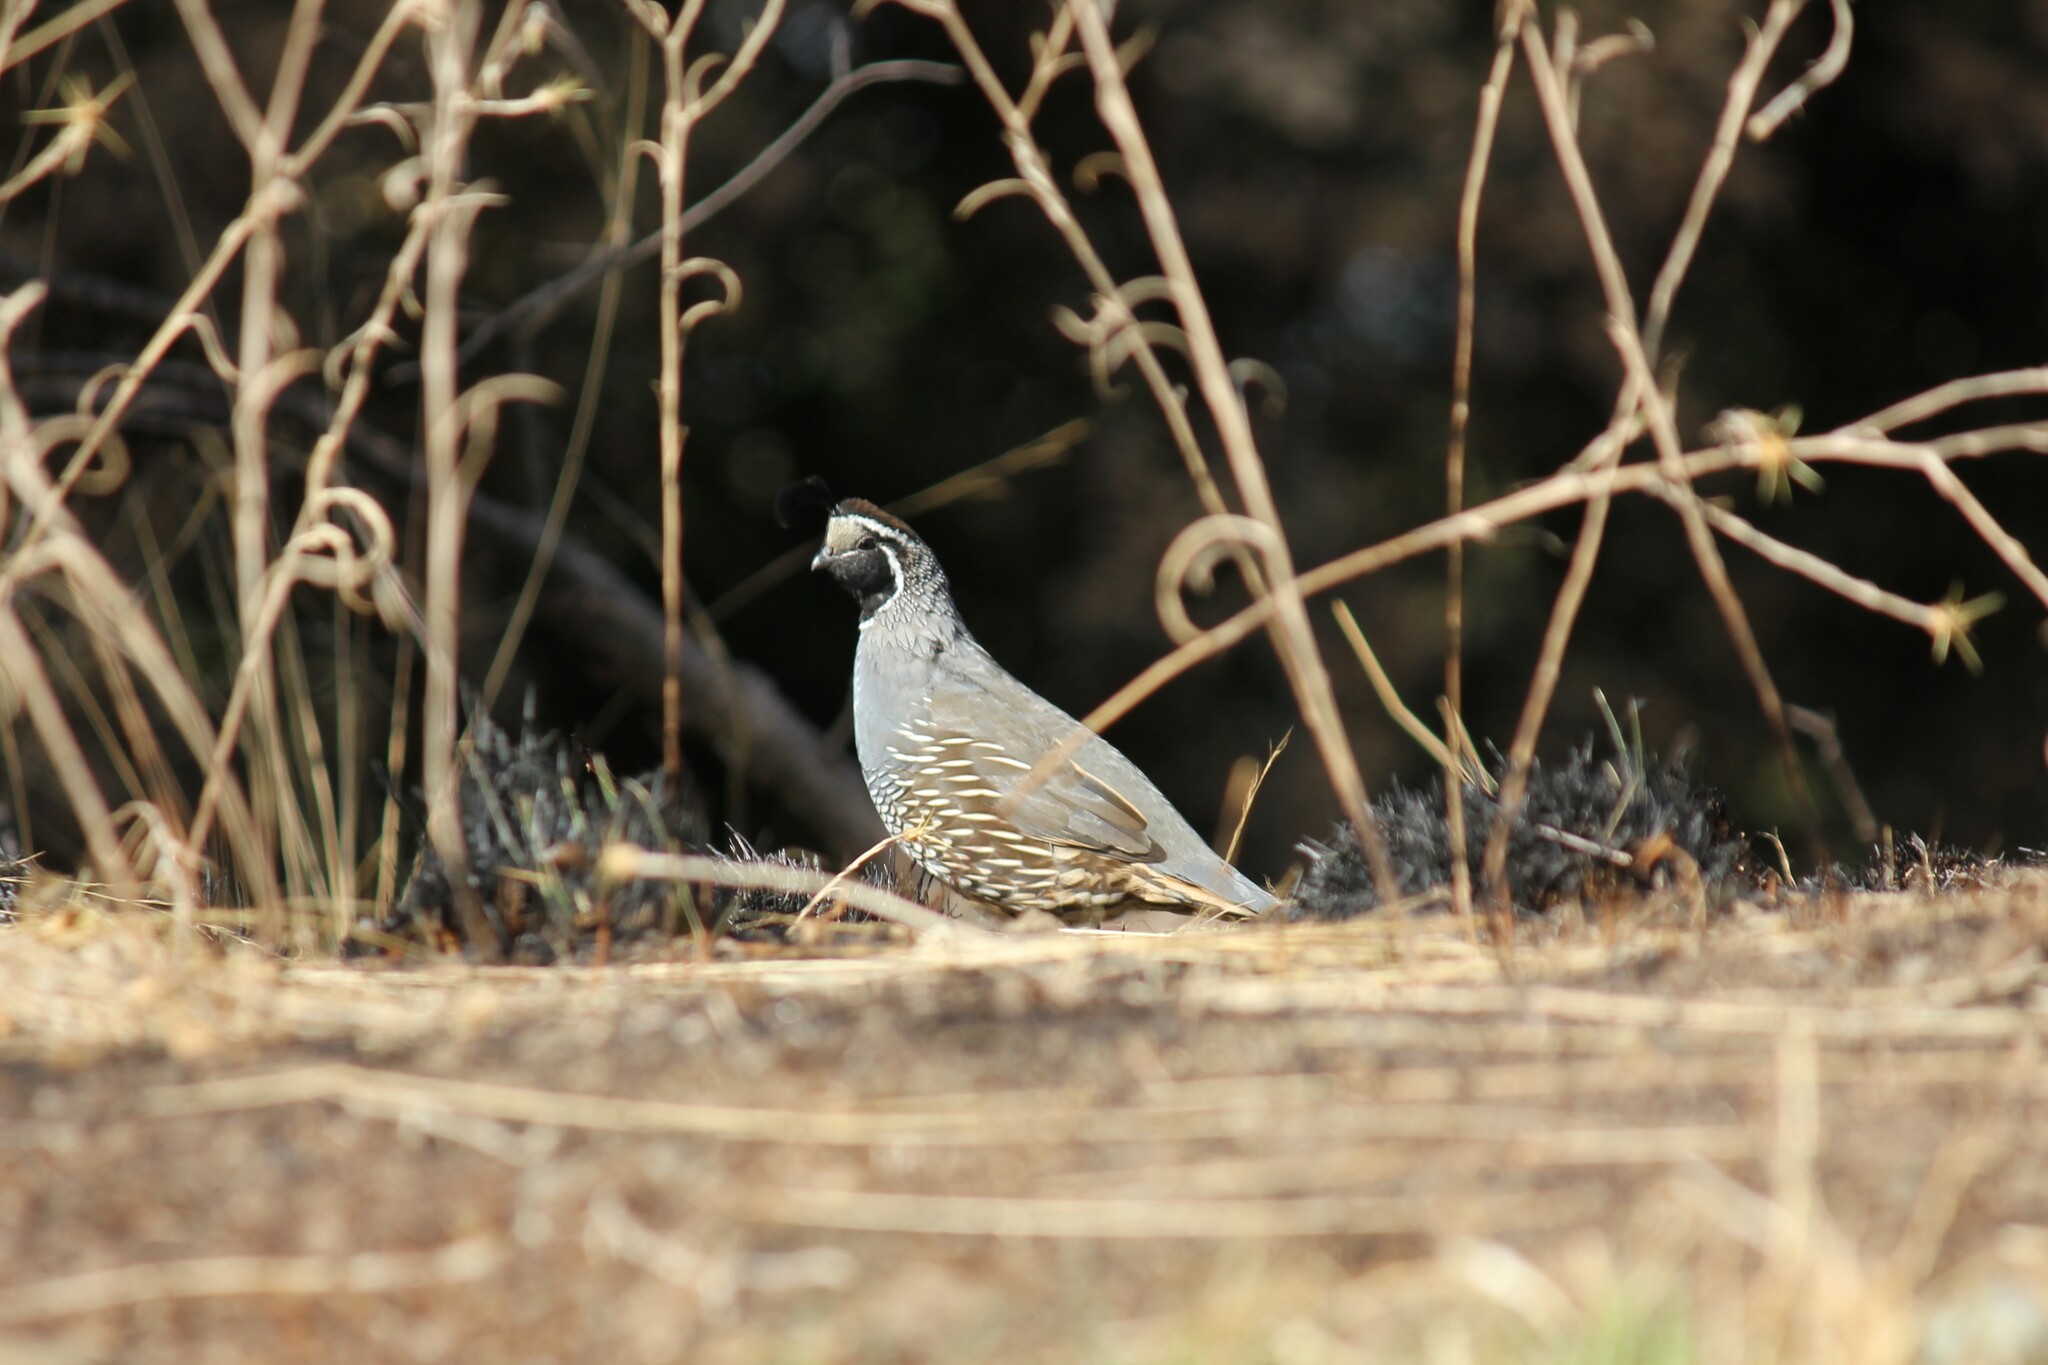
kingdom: Animalia
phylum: Chordata
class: Aves
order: Galliformes
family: Odontophoridae
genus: Callipepla
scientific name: Callipepla californica
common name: California quail
